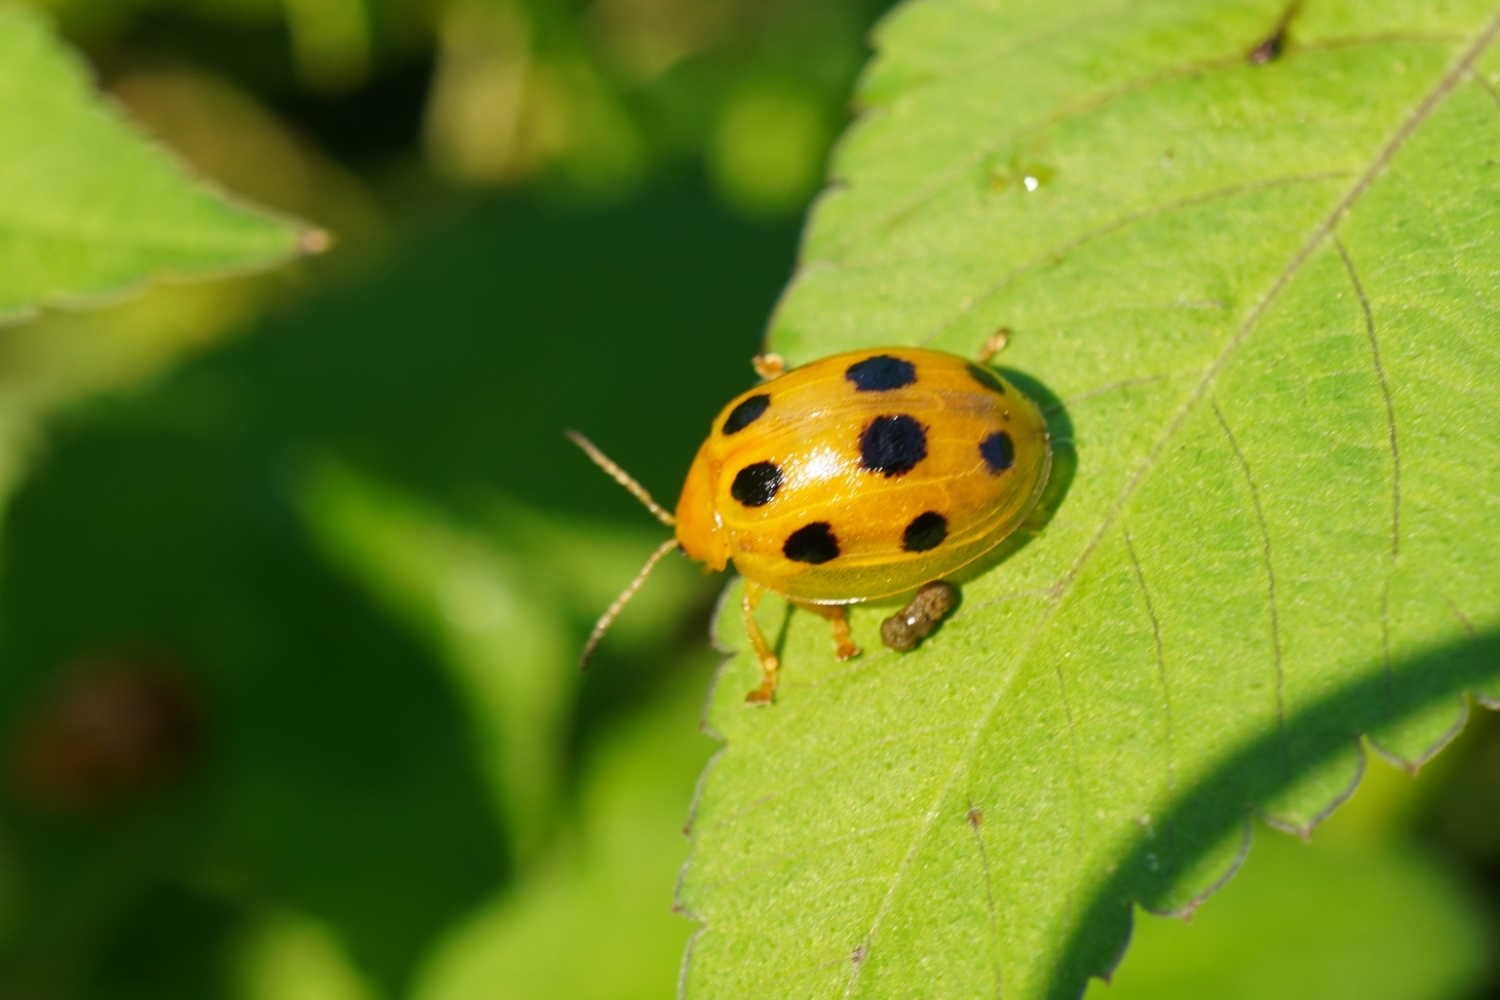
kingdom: Animalia
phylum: Arthropoda
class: Insecta
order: Coleoptera
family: Chrysomelidae
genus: Oides
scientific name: Oides decempunctata
